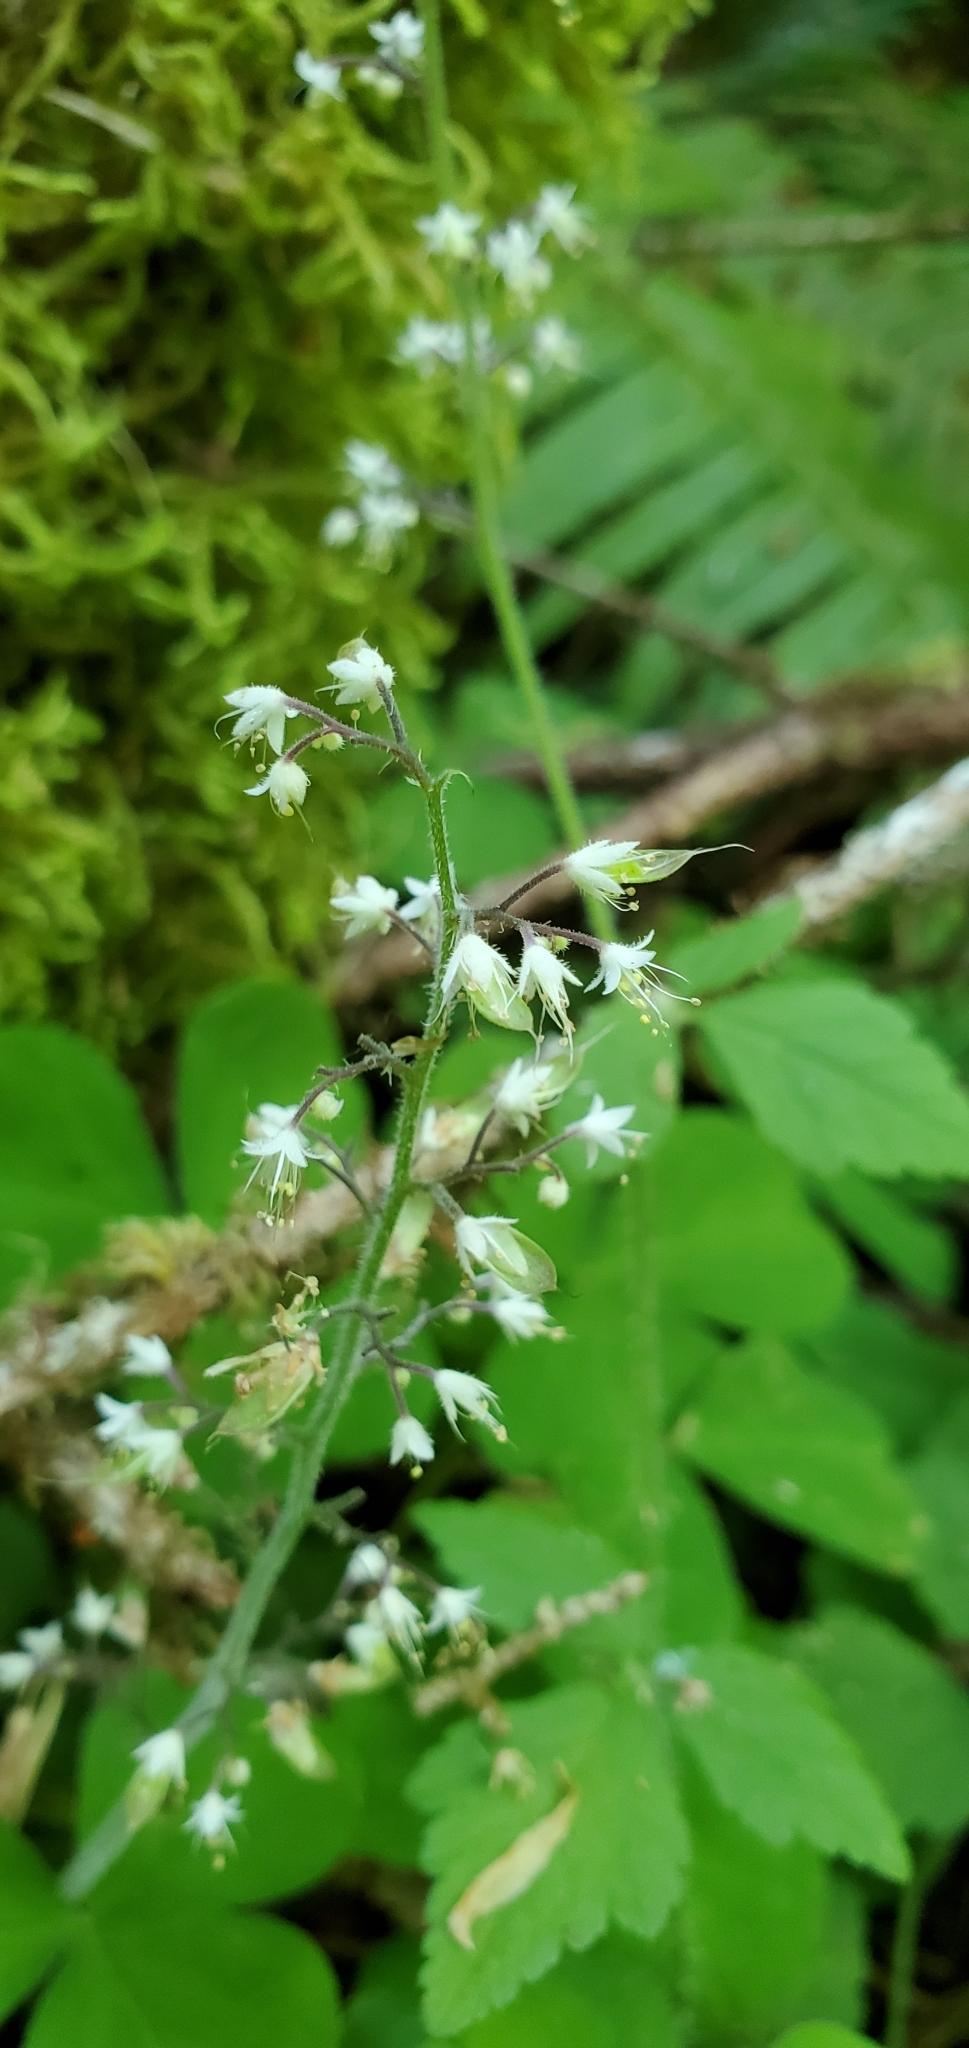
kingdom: Plantae
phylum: Tracheophyta
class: Magnoliopsida
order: Saxifragales
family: Saxifragaceae
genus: Tiarella
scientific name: Tiarella trifoliata
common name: Sugar-scoop
